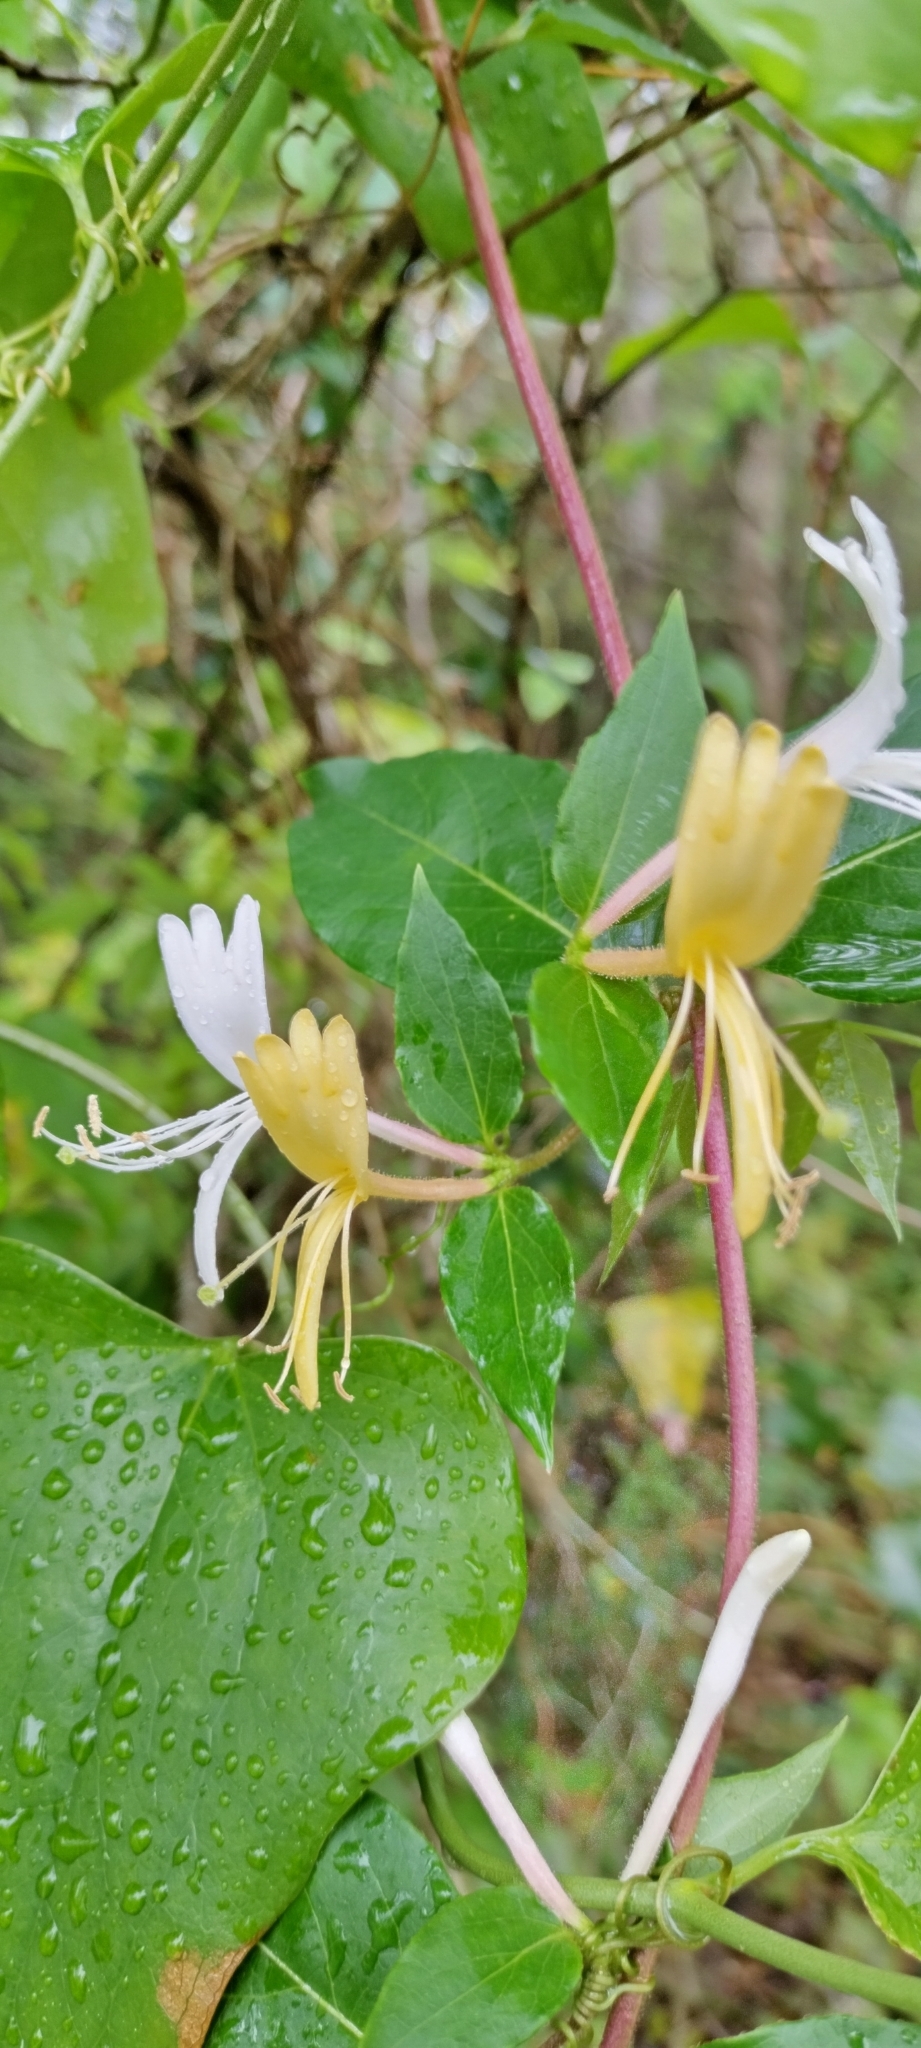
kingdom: Plantae
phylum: Tracheophyta
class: Magnoliopsida
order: Dipsacales
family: Caprifoliaceae
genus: Lonicera
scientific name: Lonicera japonica
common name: Japanese honeysuckle
